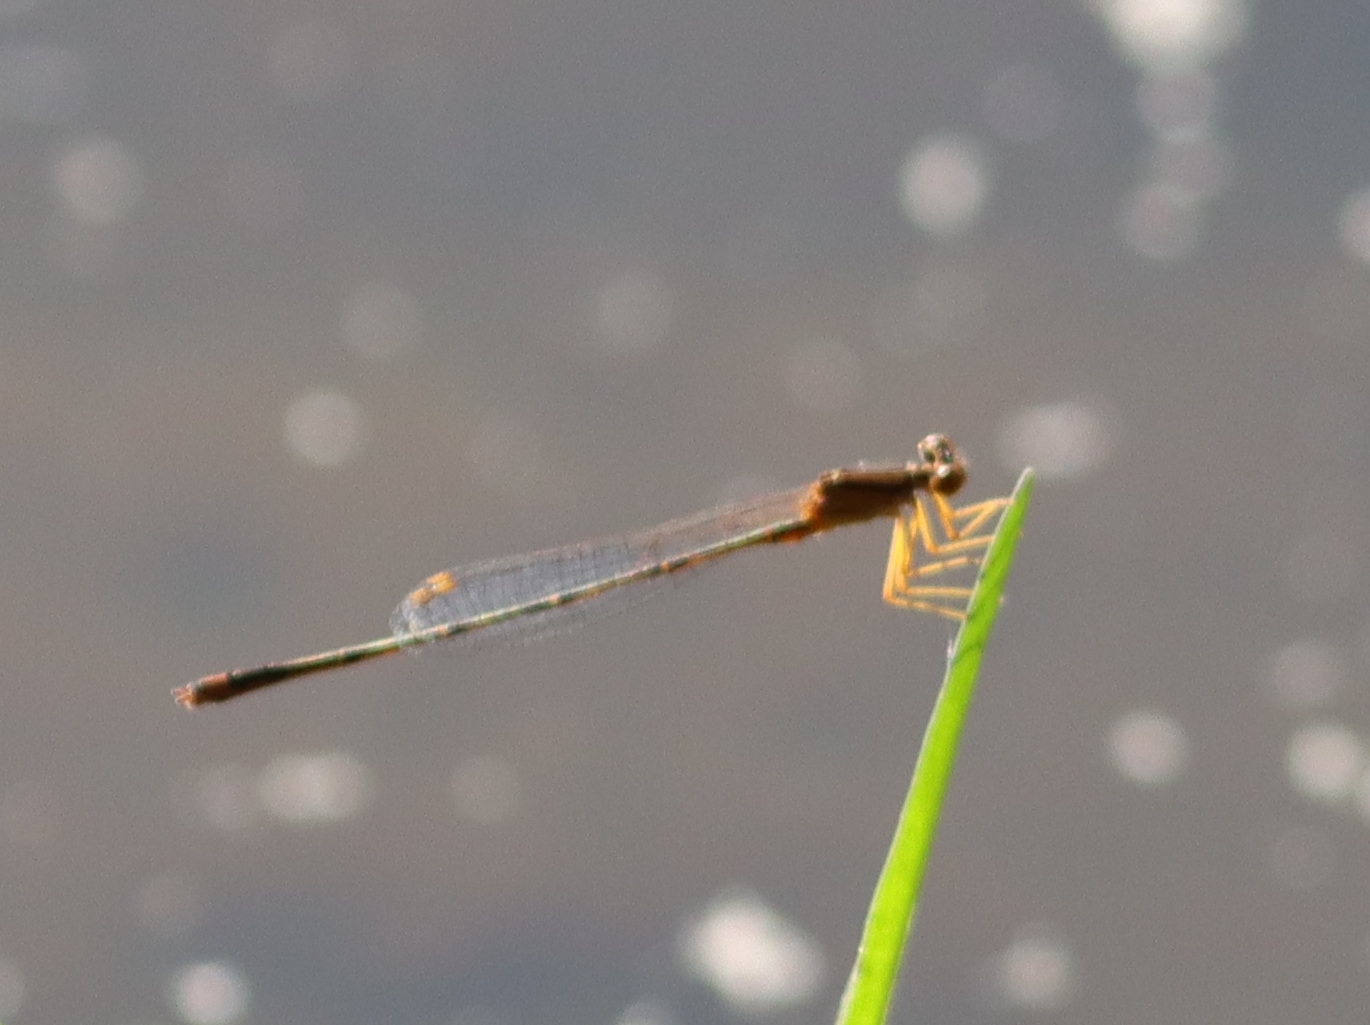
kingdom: Animalia
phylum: Arthropoda
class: Insecta
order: Odonata
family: Coenagrionidae
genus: Enallagma
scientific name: Enallagma signatum
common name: Orange bluet
